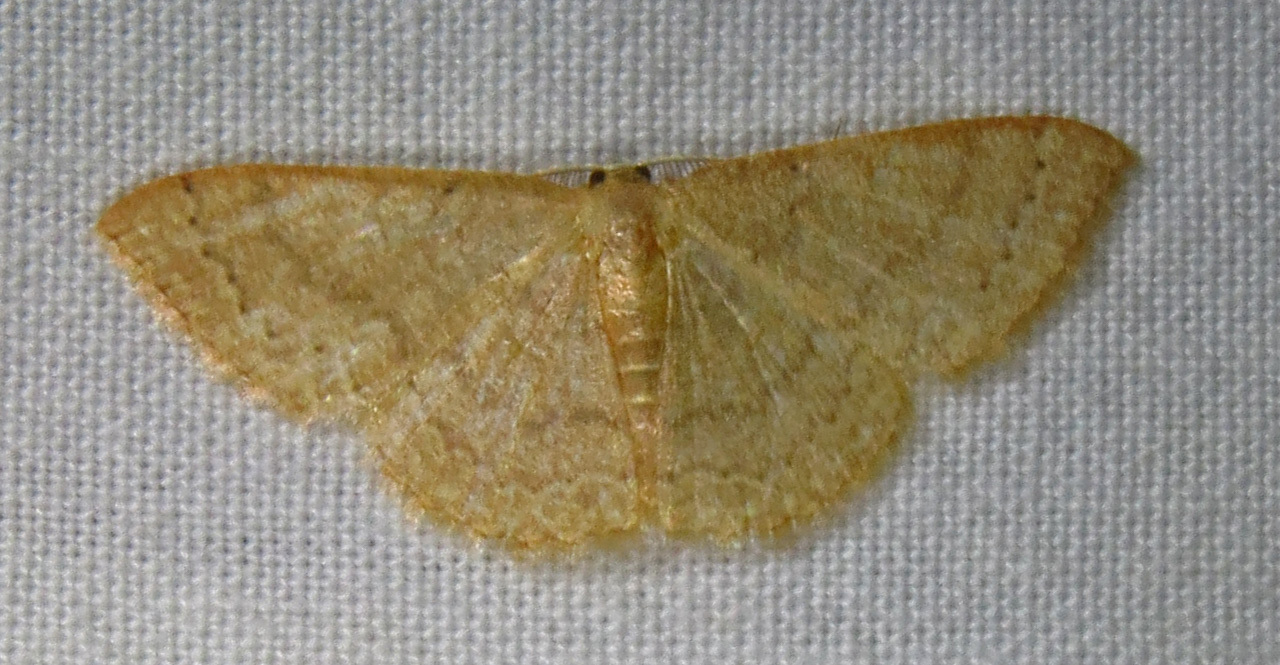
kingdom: Animalia
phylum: Arthropoda
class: Insecta
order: Lepidoptera
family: Geometridae
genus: Pleuroprucha
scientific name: Pleuroprucha insulsaria
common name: Common tan wave
